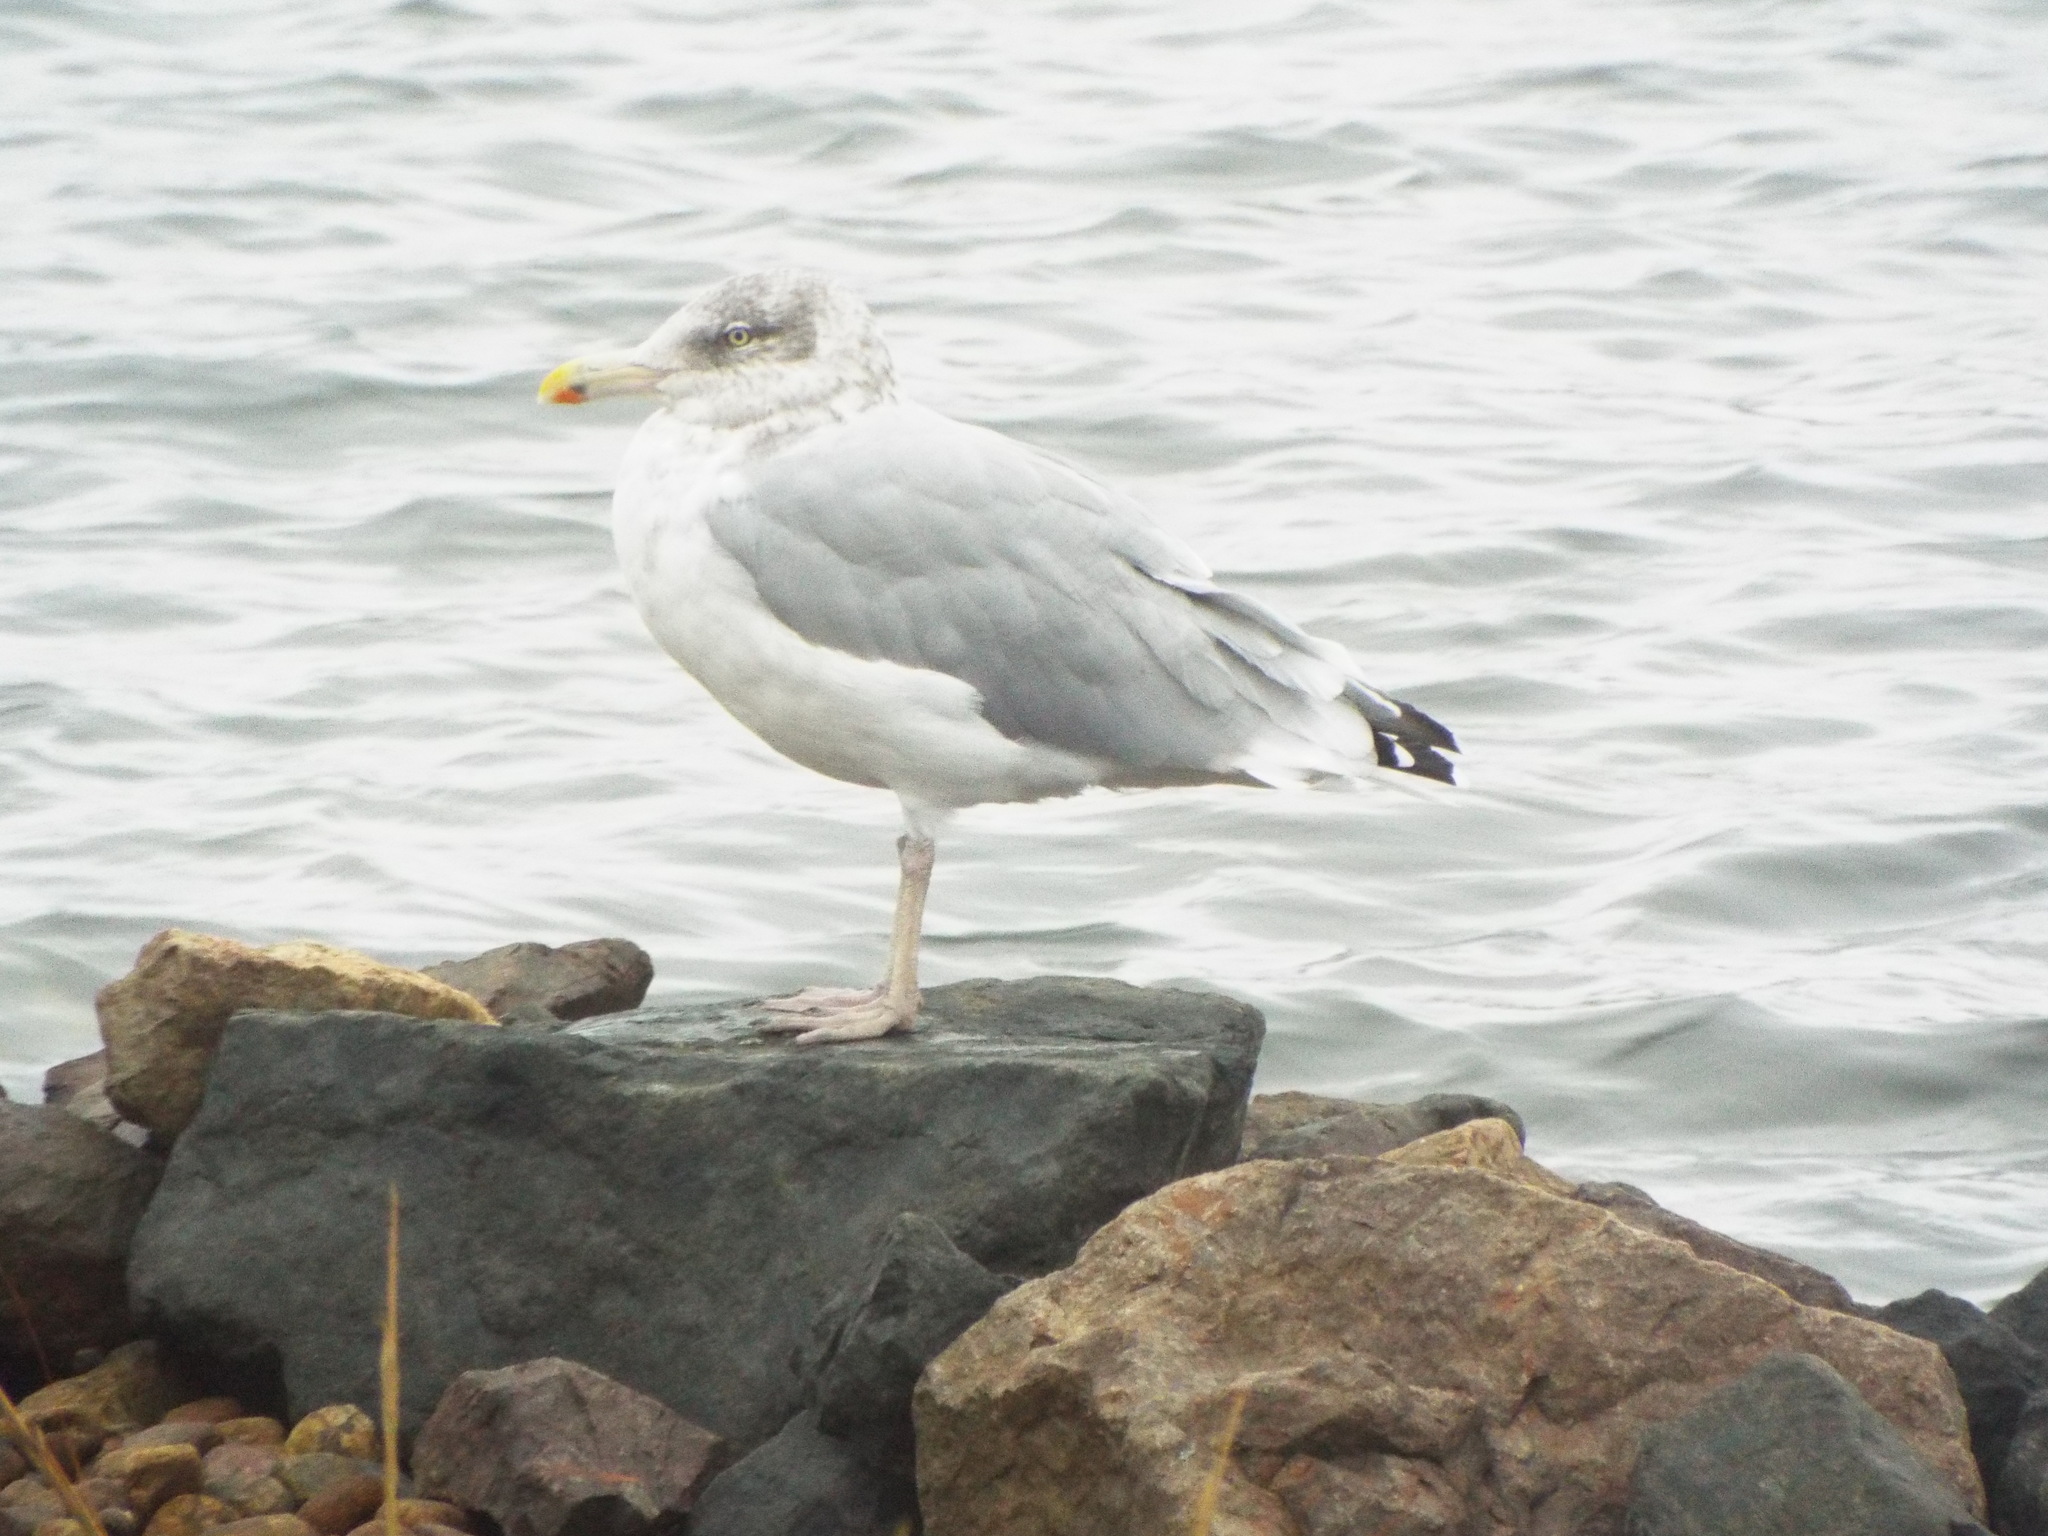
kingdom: Animalia
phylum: Chordata
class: Aves
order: Charadriiformes
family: Laridae
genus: Larus
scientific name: Larus argentatus
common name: Herring gull
